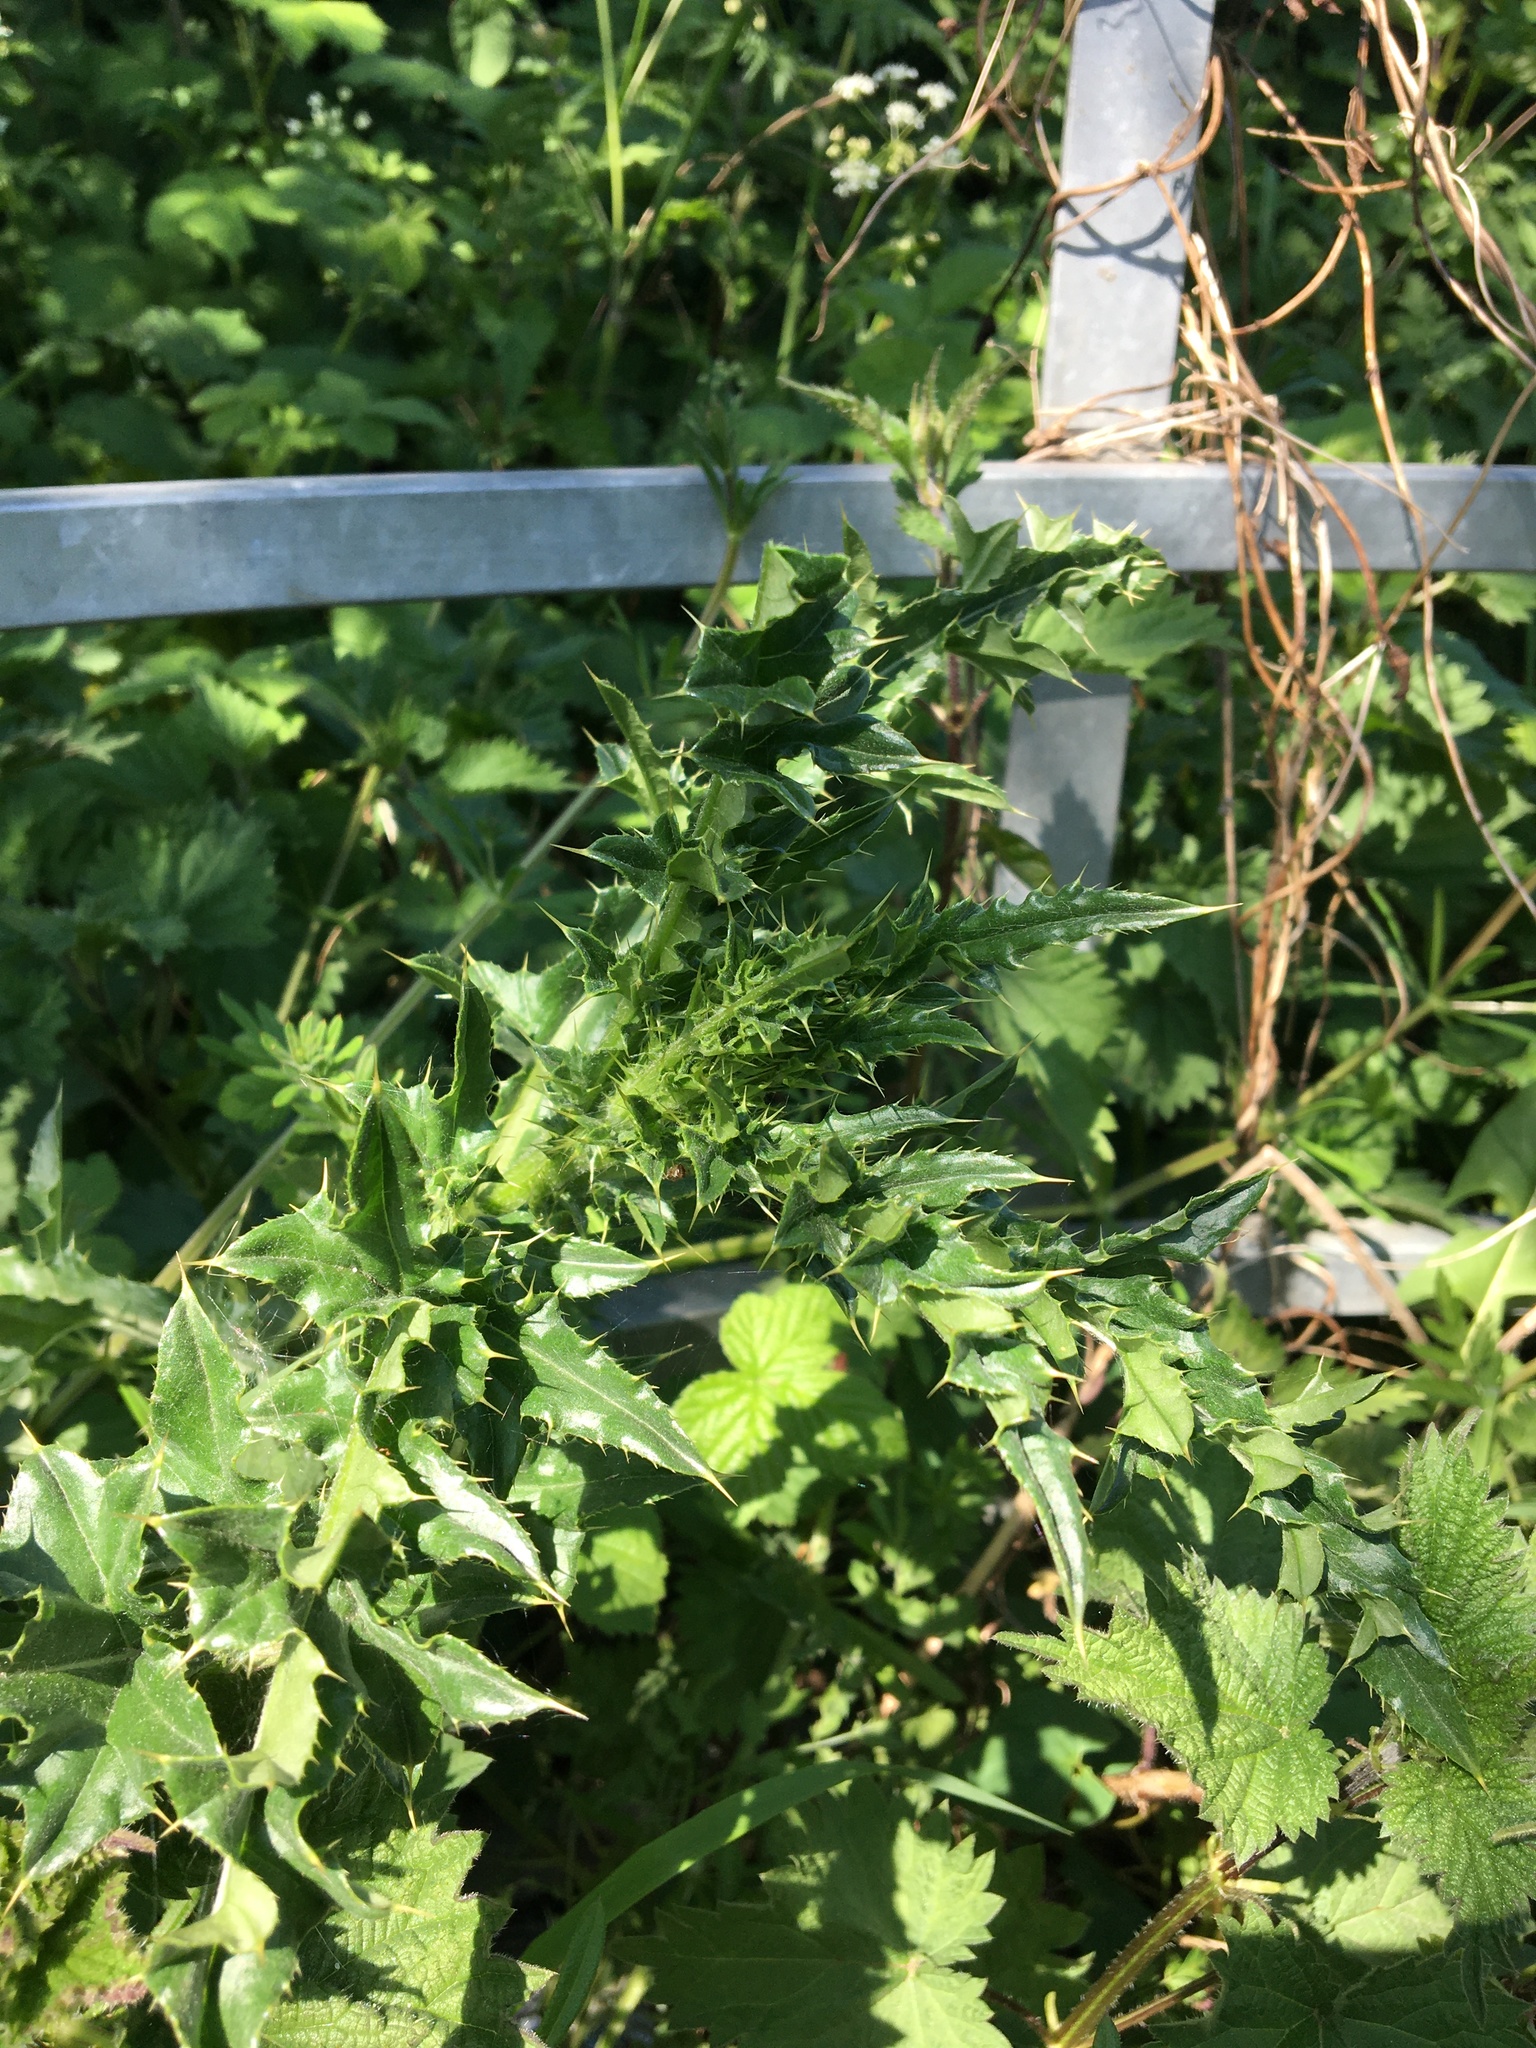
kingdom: Plantae
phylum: Tracheophyta
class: Magnoliopsida
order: Asterales
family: Asteraceae
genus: Cirsium
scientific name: Cirsium arvense
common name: Creeping thistle
